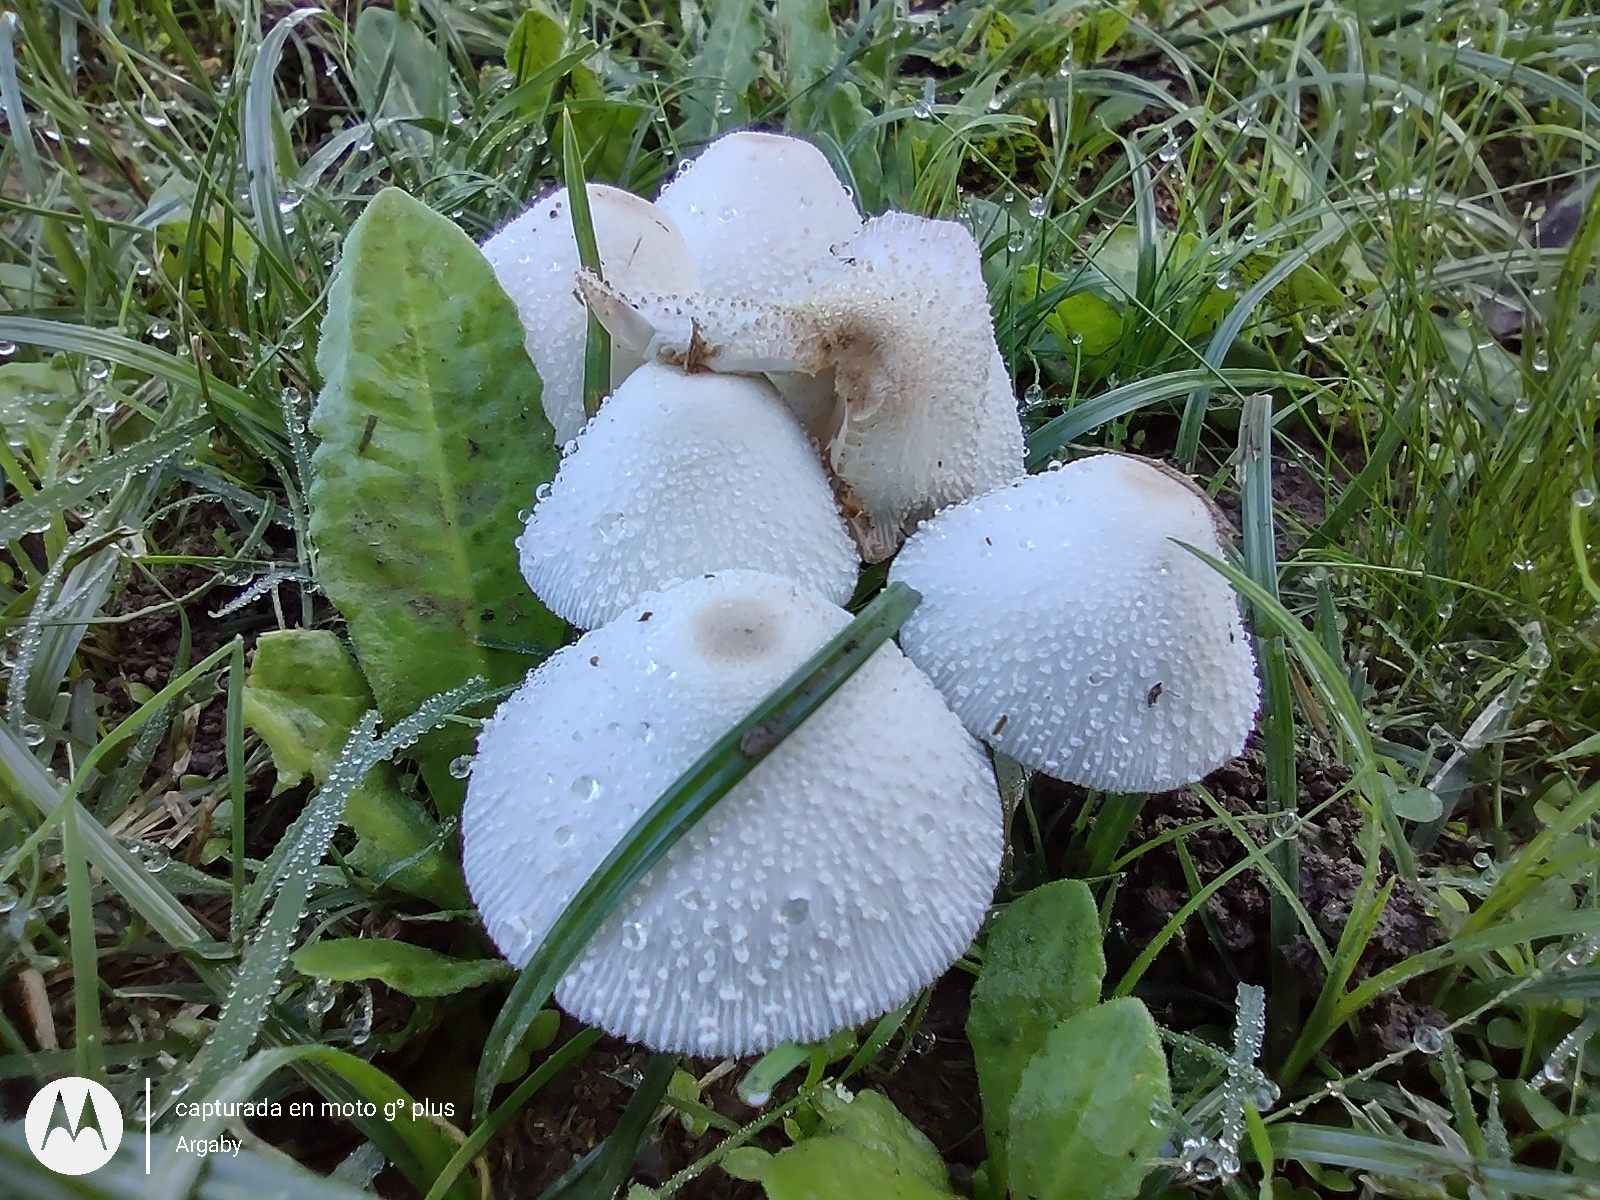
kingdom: Fungi
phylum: Basidiomycota
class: Agaricomycetes
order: Agaricales
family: Agaricaceae
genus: Leucocoprinus
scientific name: Leucocoprinus cepistipes
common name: Onion-stalk parasol
